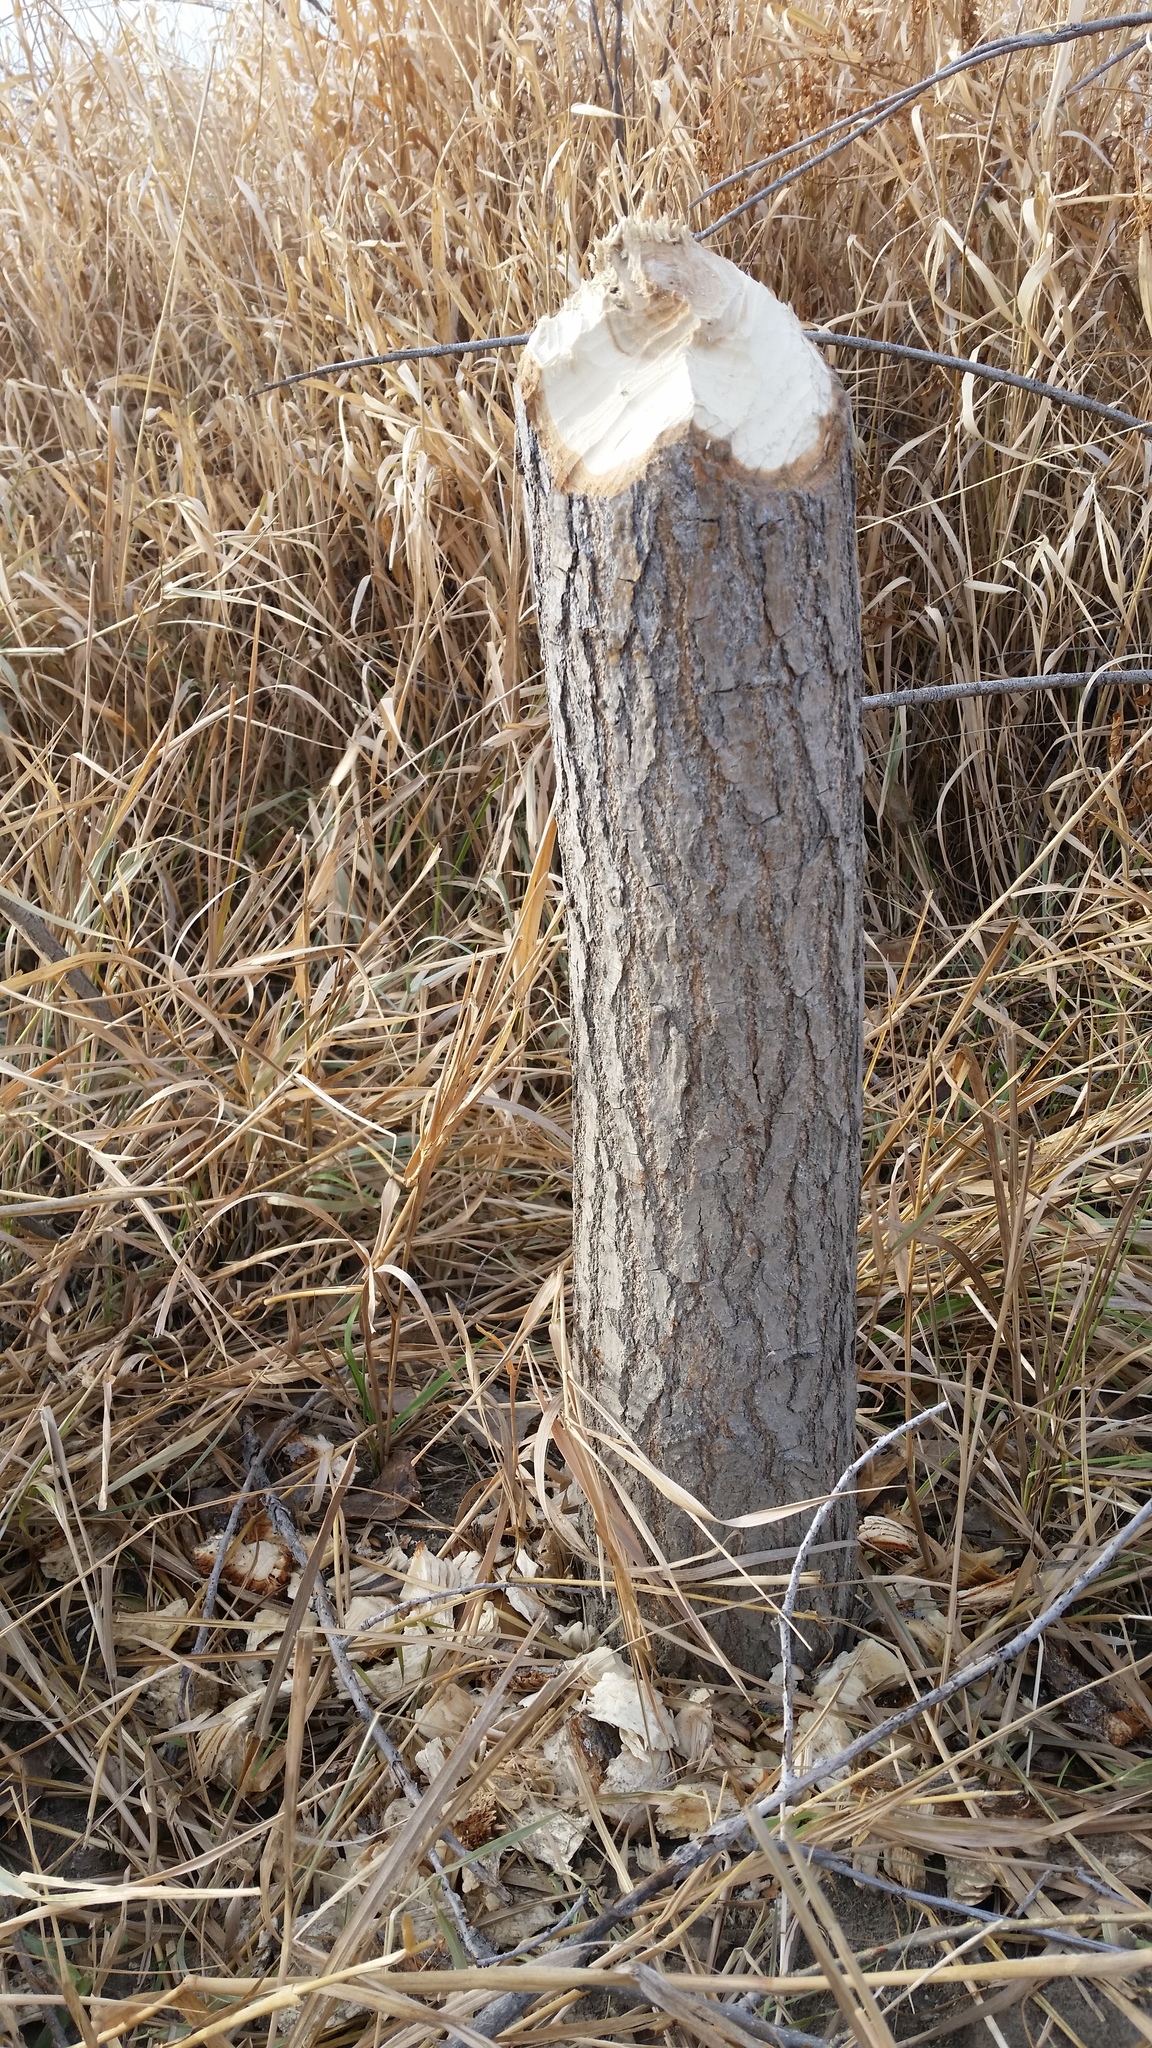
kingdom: Animalia
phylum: Chordata
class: Mammalia
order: Rodentia
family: Castoridae
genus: Castor
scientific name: Castor canadensis
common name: American beaver
